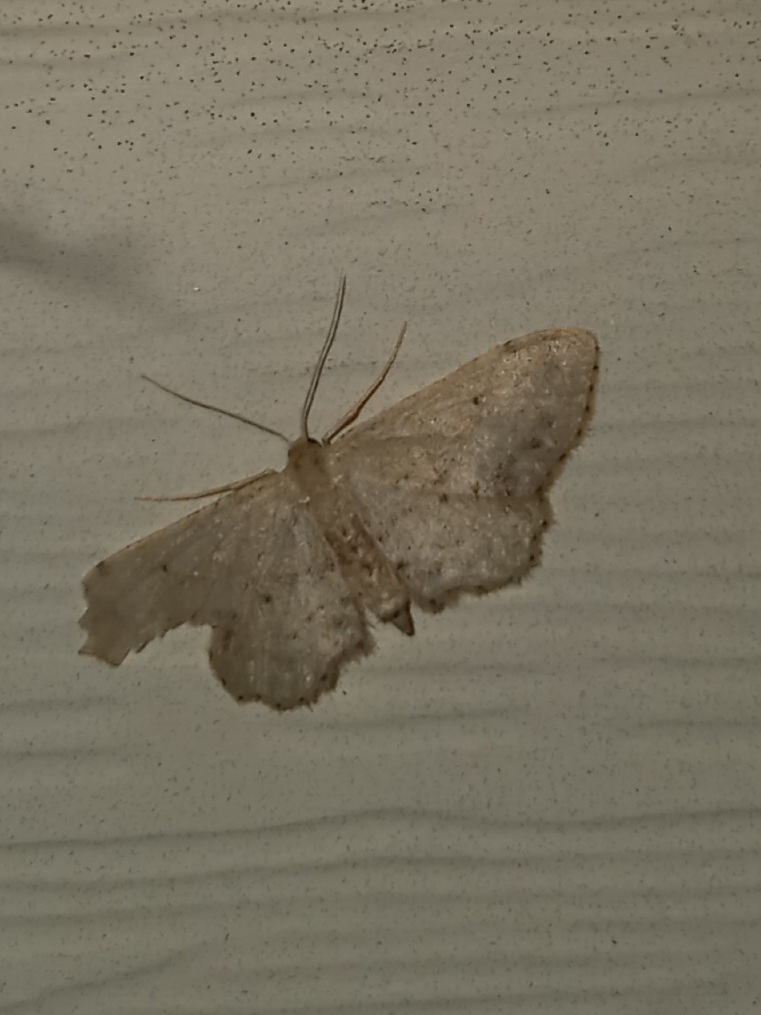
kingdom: Animalia
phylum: Arthropoda
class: Insecta
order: Lepidoptera
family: Geometridae
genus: Idaea
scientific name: Idaea dimidiata
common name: Single-dotted wave
